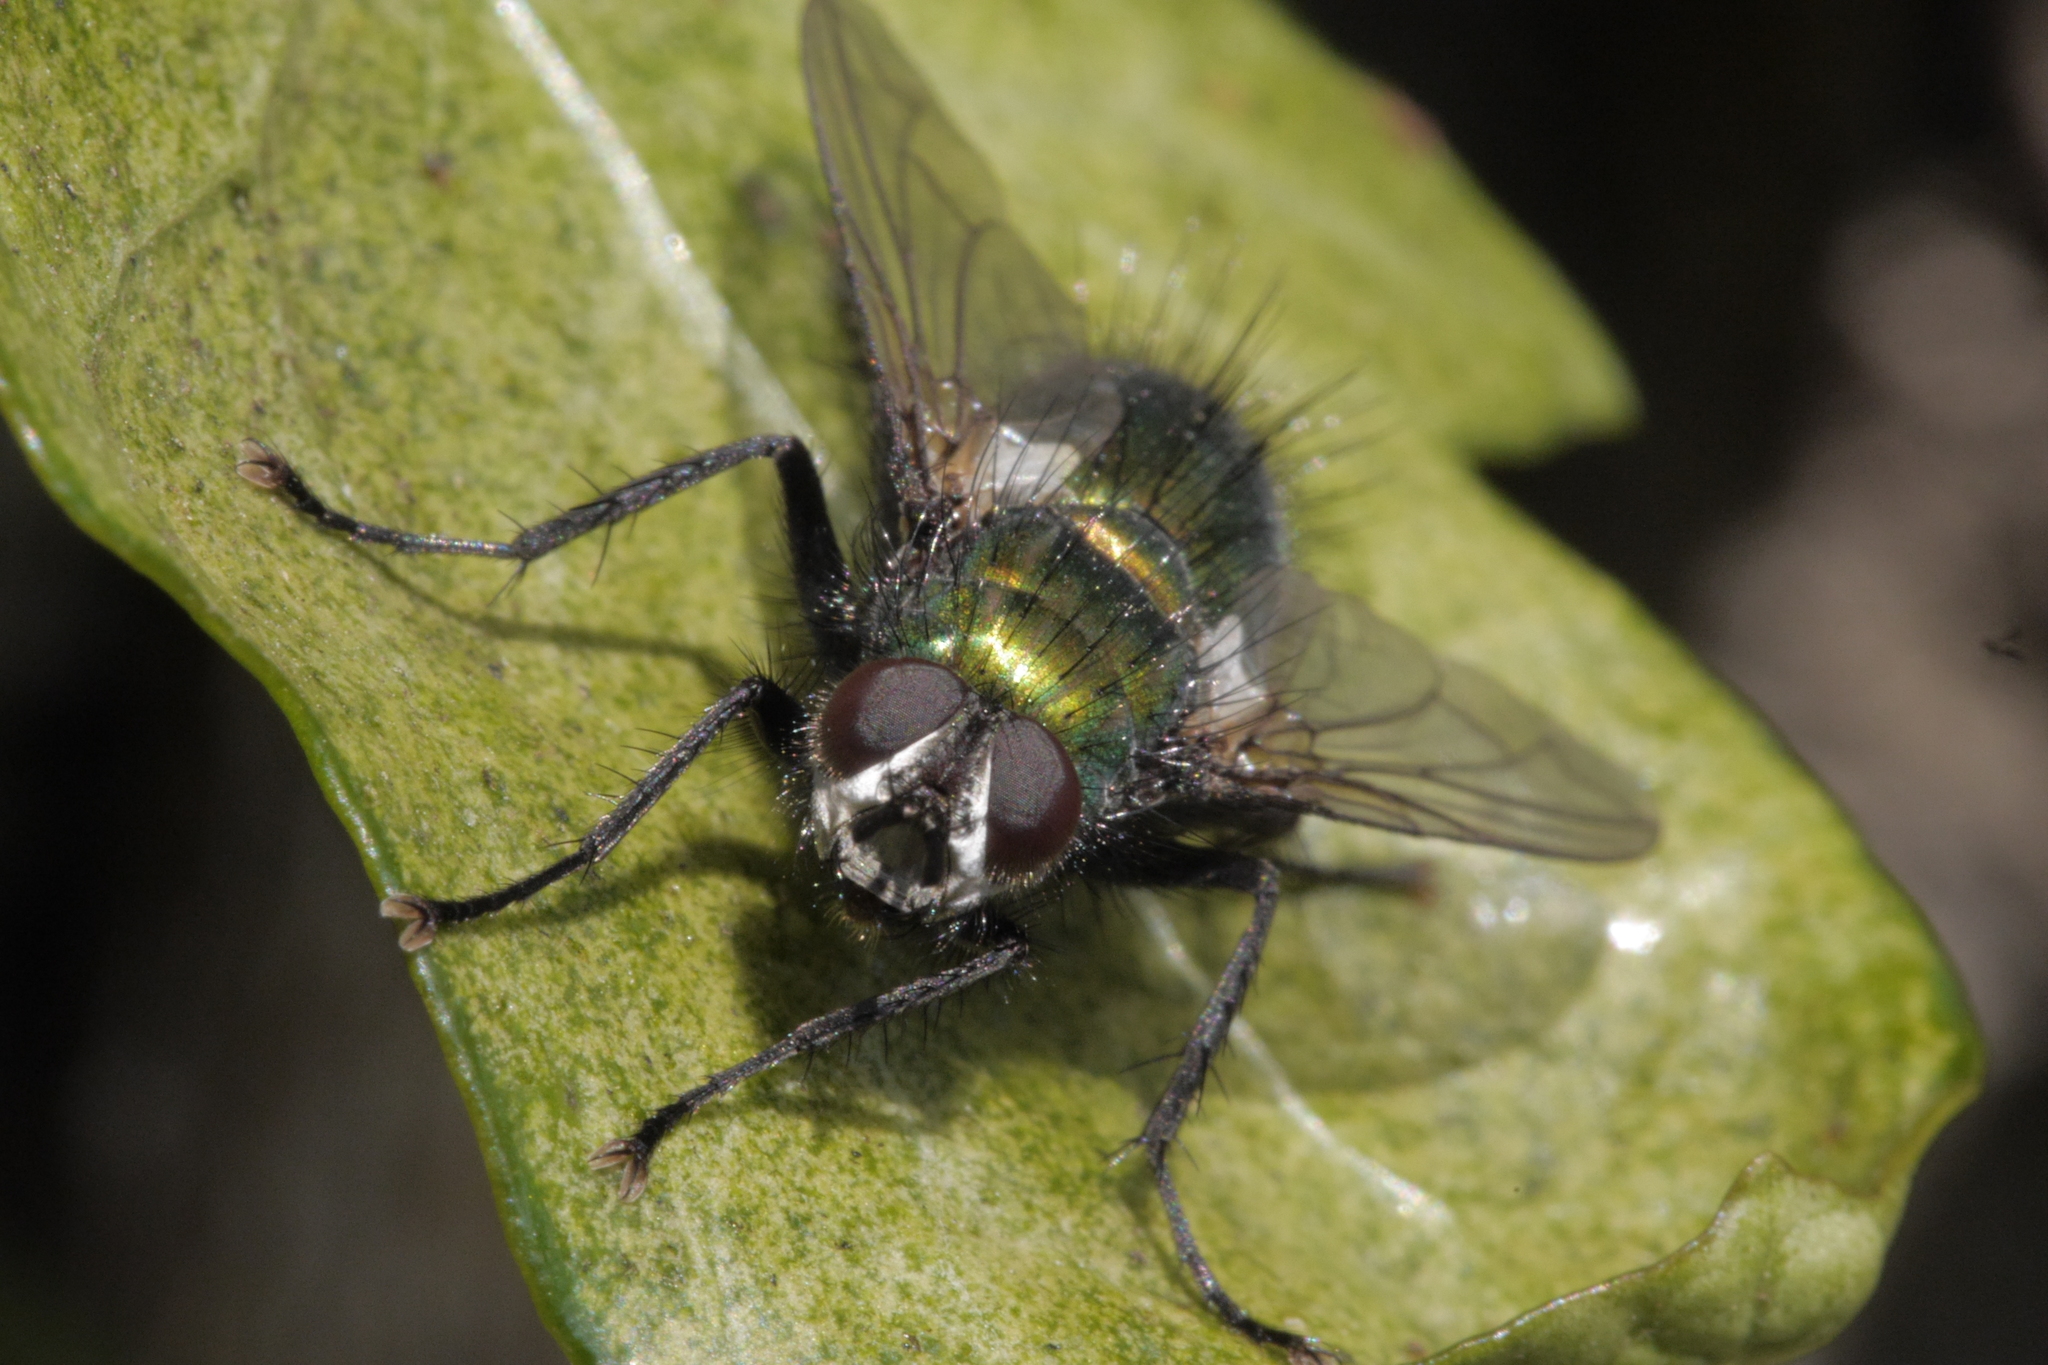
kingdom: Animalia
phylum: Arthropoda
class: Insecta
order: Diptera
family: Tachinidae
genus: Gymnocheta
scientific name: Gymnocheta viridis
